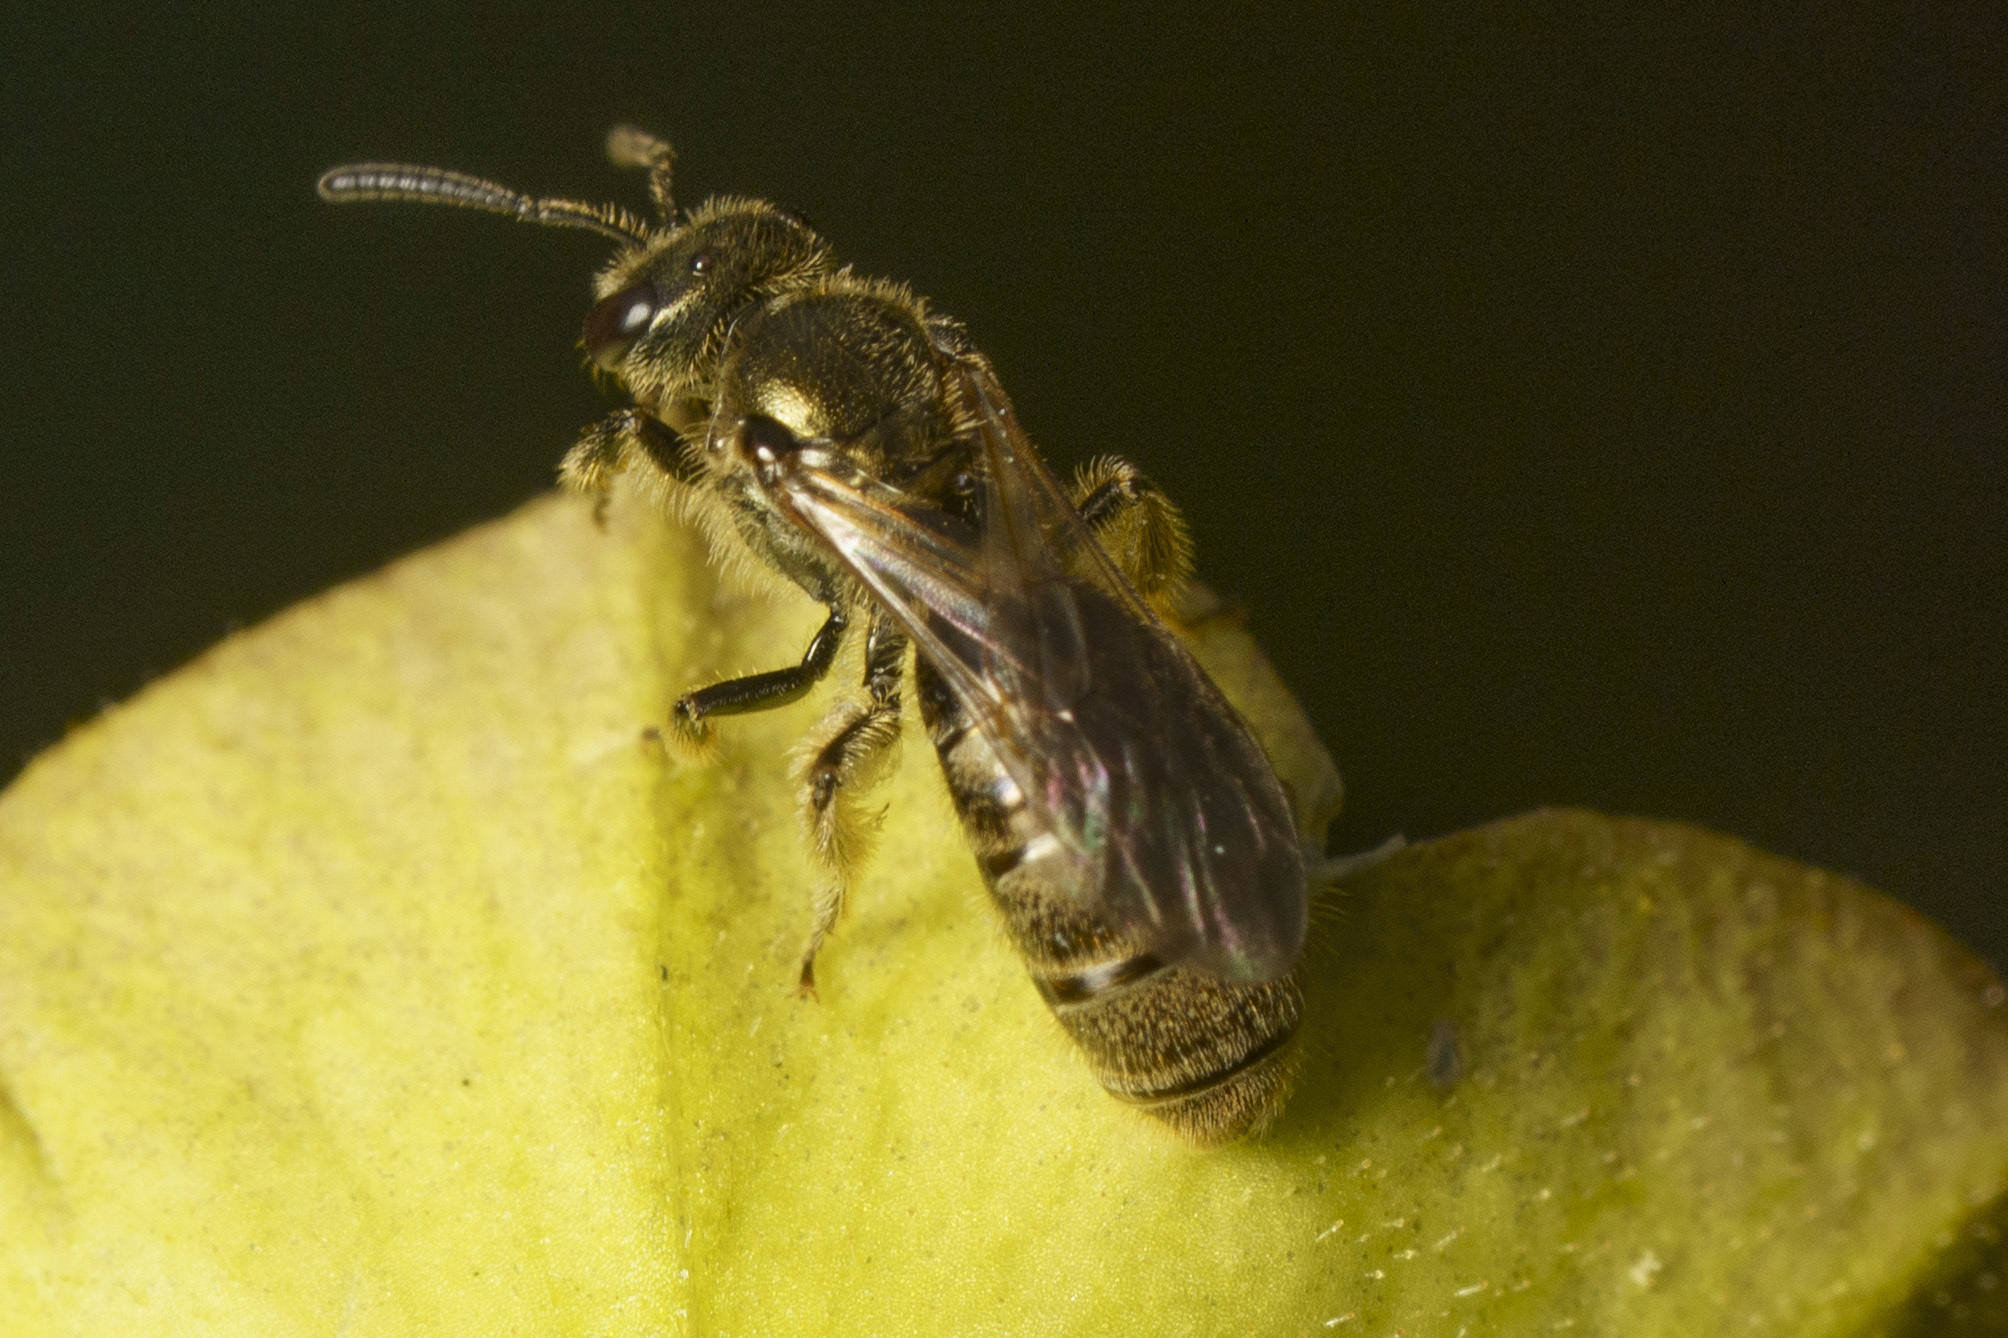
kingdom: Animalia
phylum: Arthropoda
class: Insecta
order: Hymenoptera
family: Halictidae
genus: Dialictus
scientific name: Dialictus
